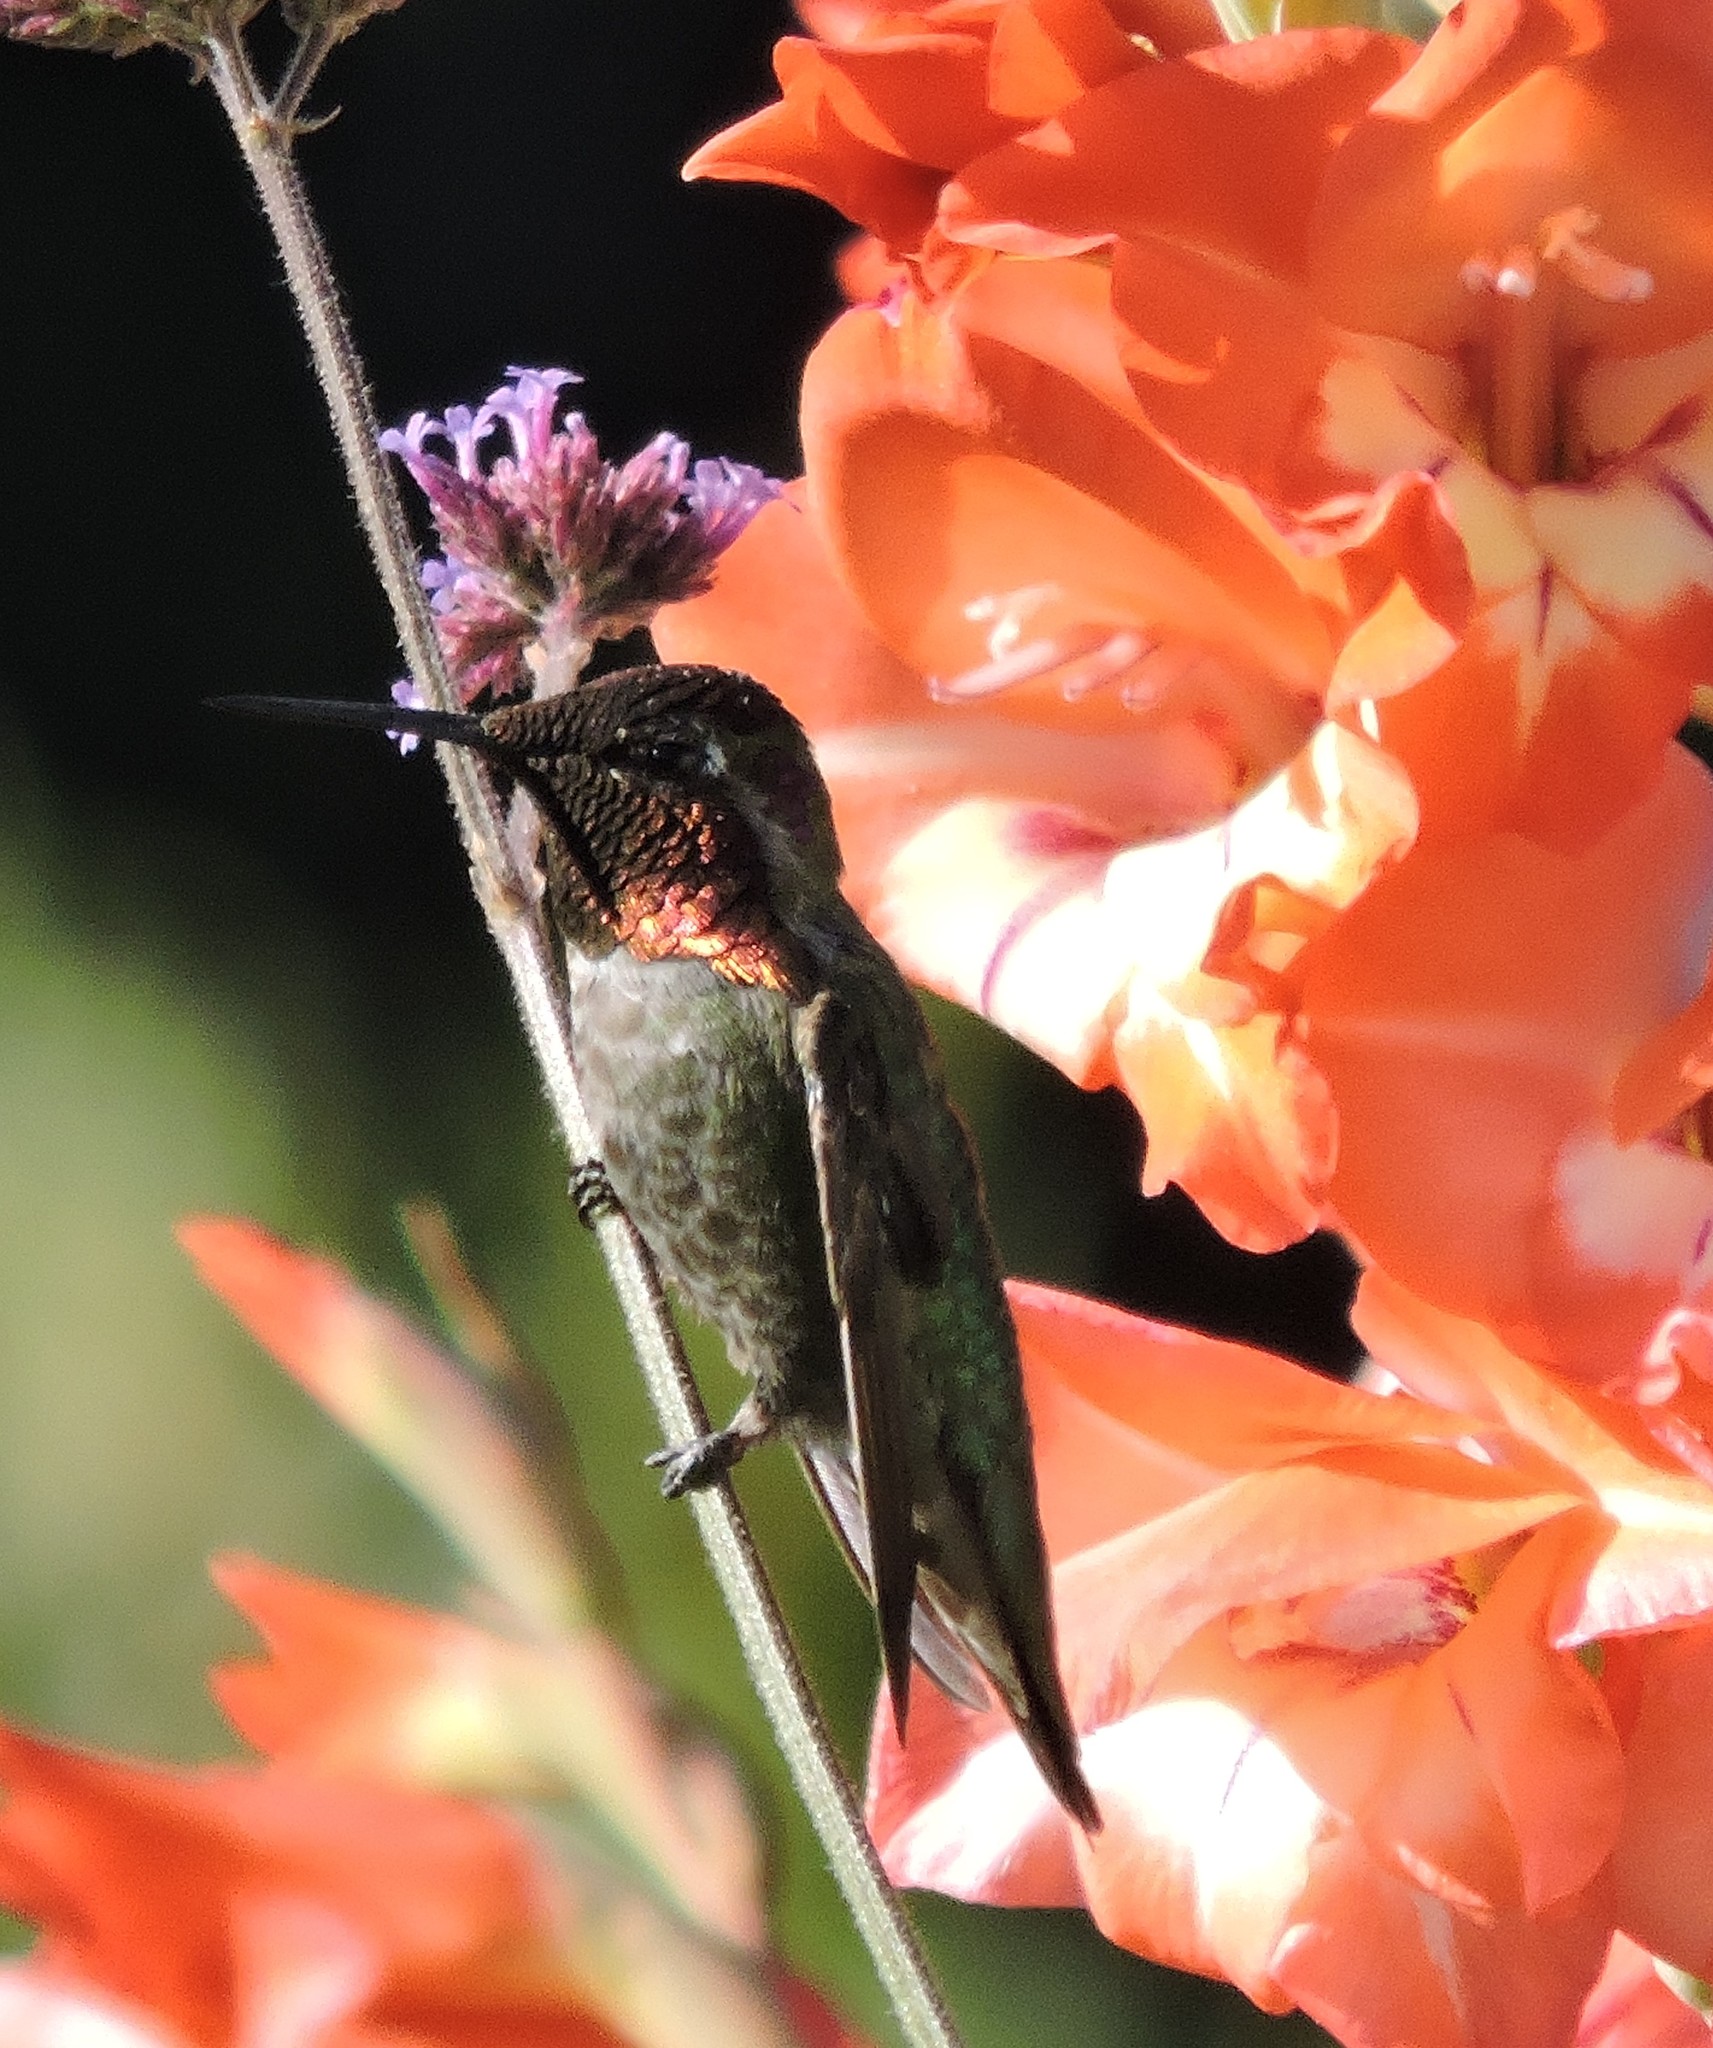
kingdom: Animalia
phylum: Chordata
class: Aves
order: Apodiformes
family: Trochilidae
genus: Calypte
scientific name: Calypte anna
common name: Anna's hummingbird
